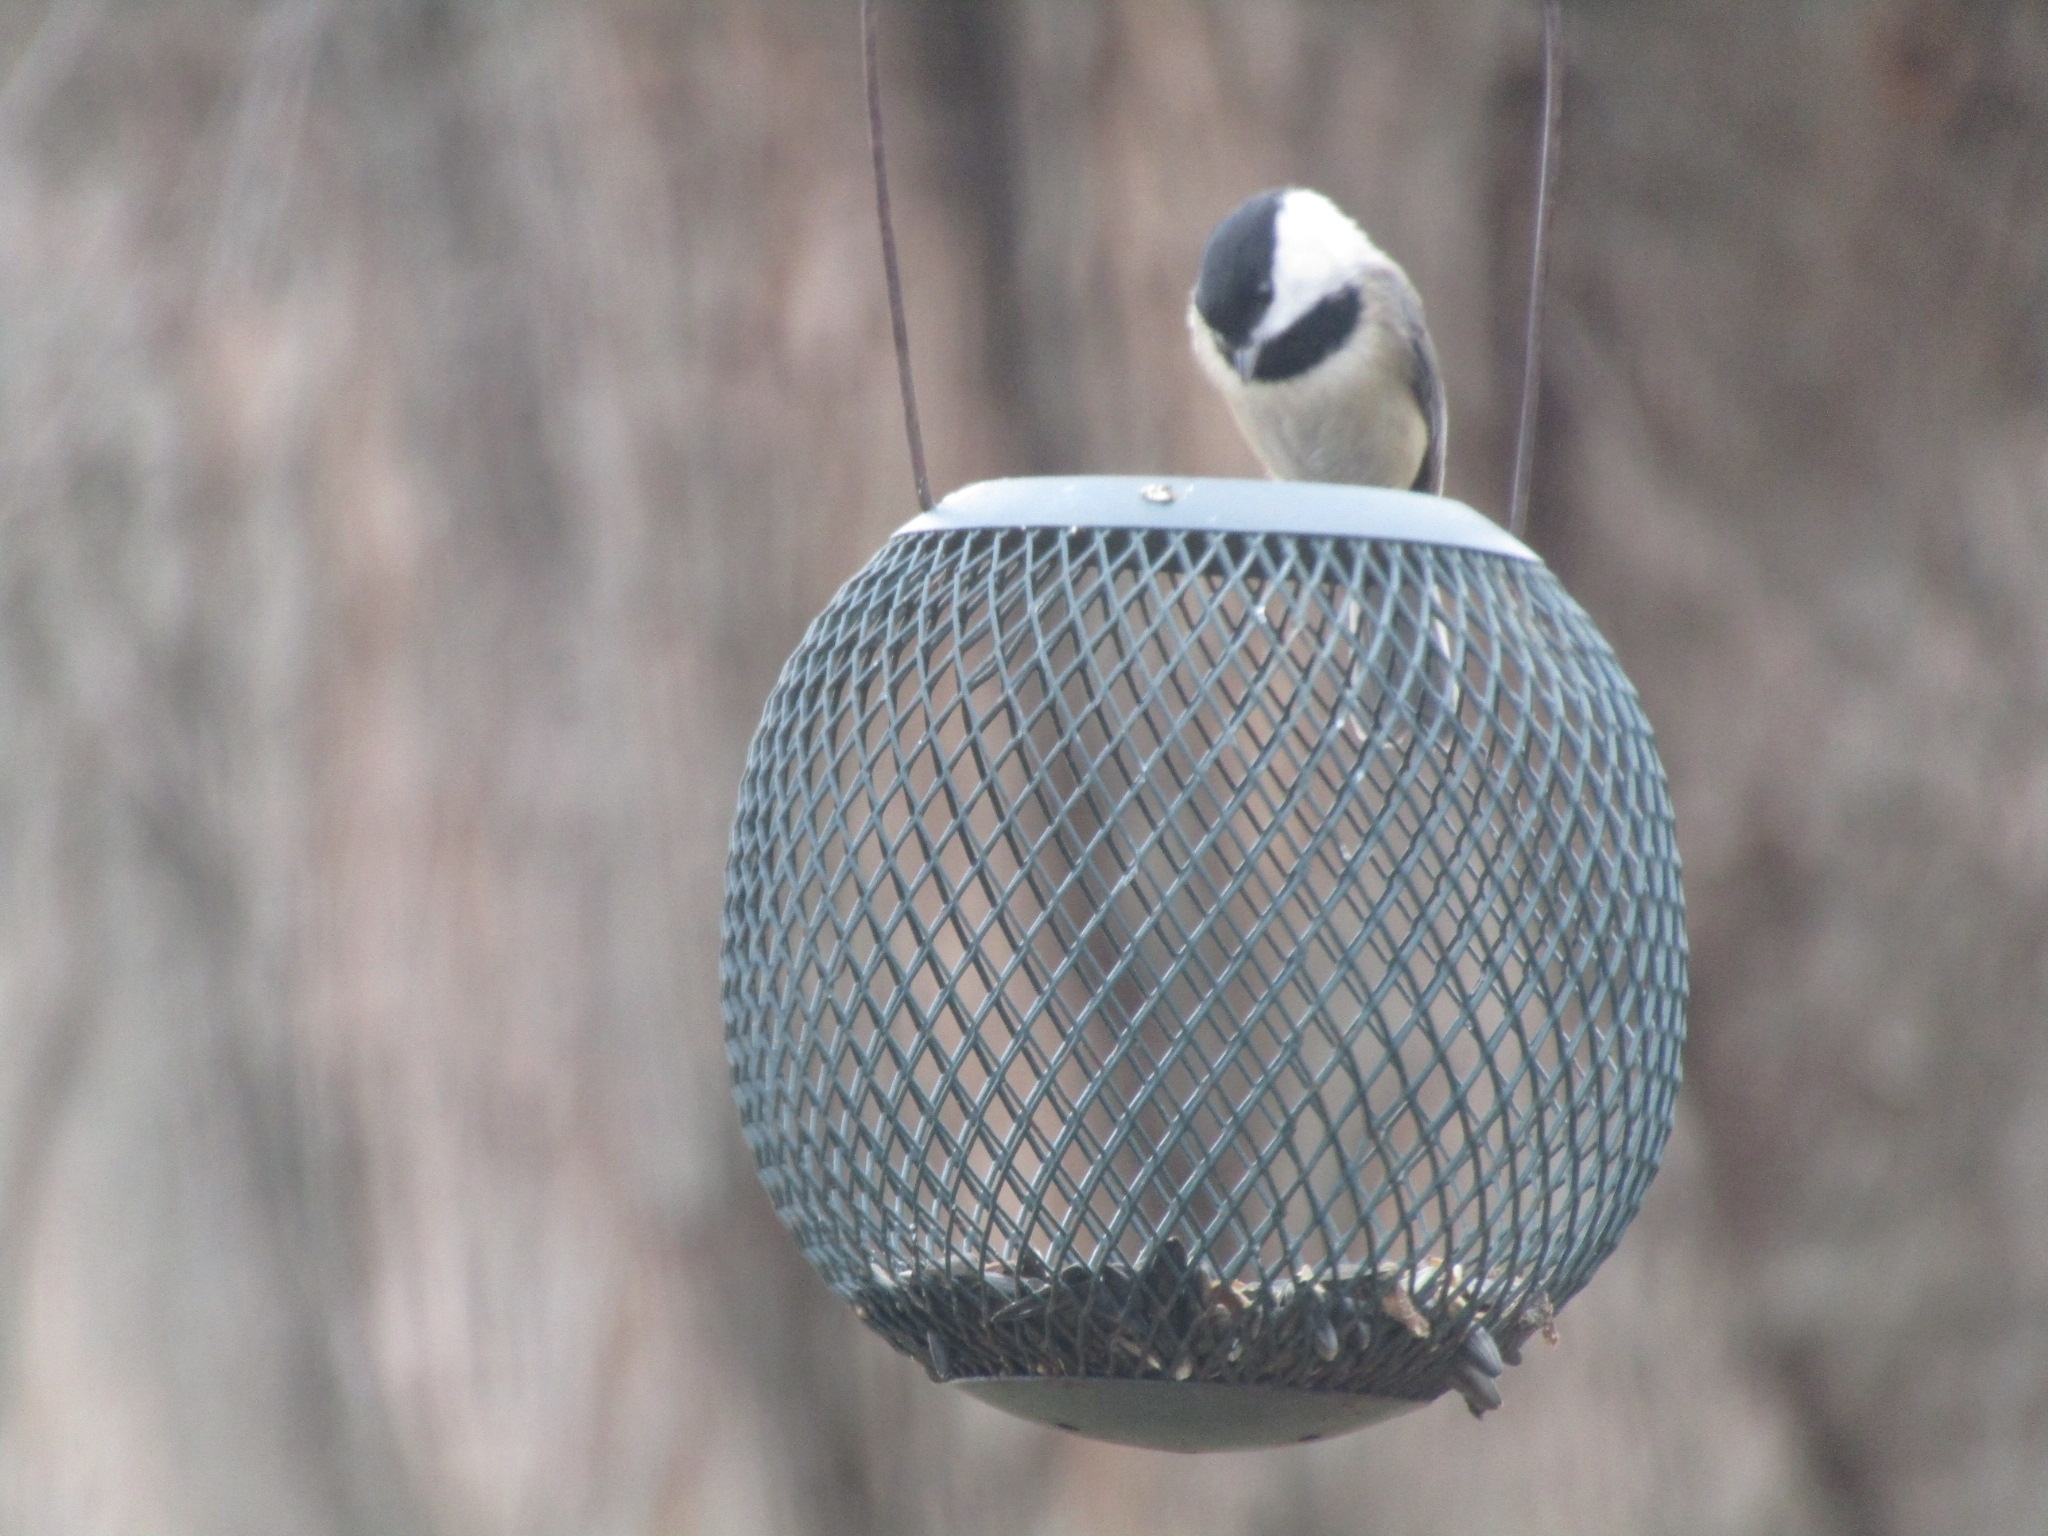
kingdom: Animalia
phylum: Chordata
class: Aves
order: Passeriformes
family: Paridae
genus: Poecile
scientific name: Poecile carolinensis
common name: Carolina chickadee
